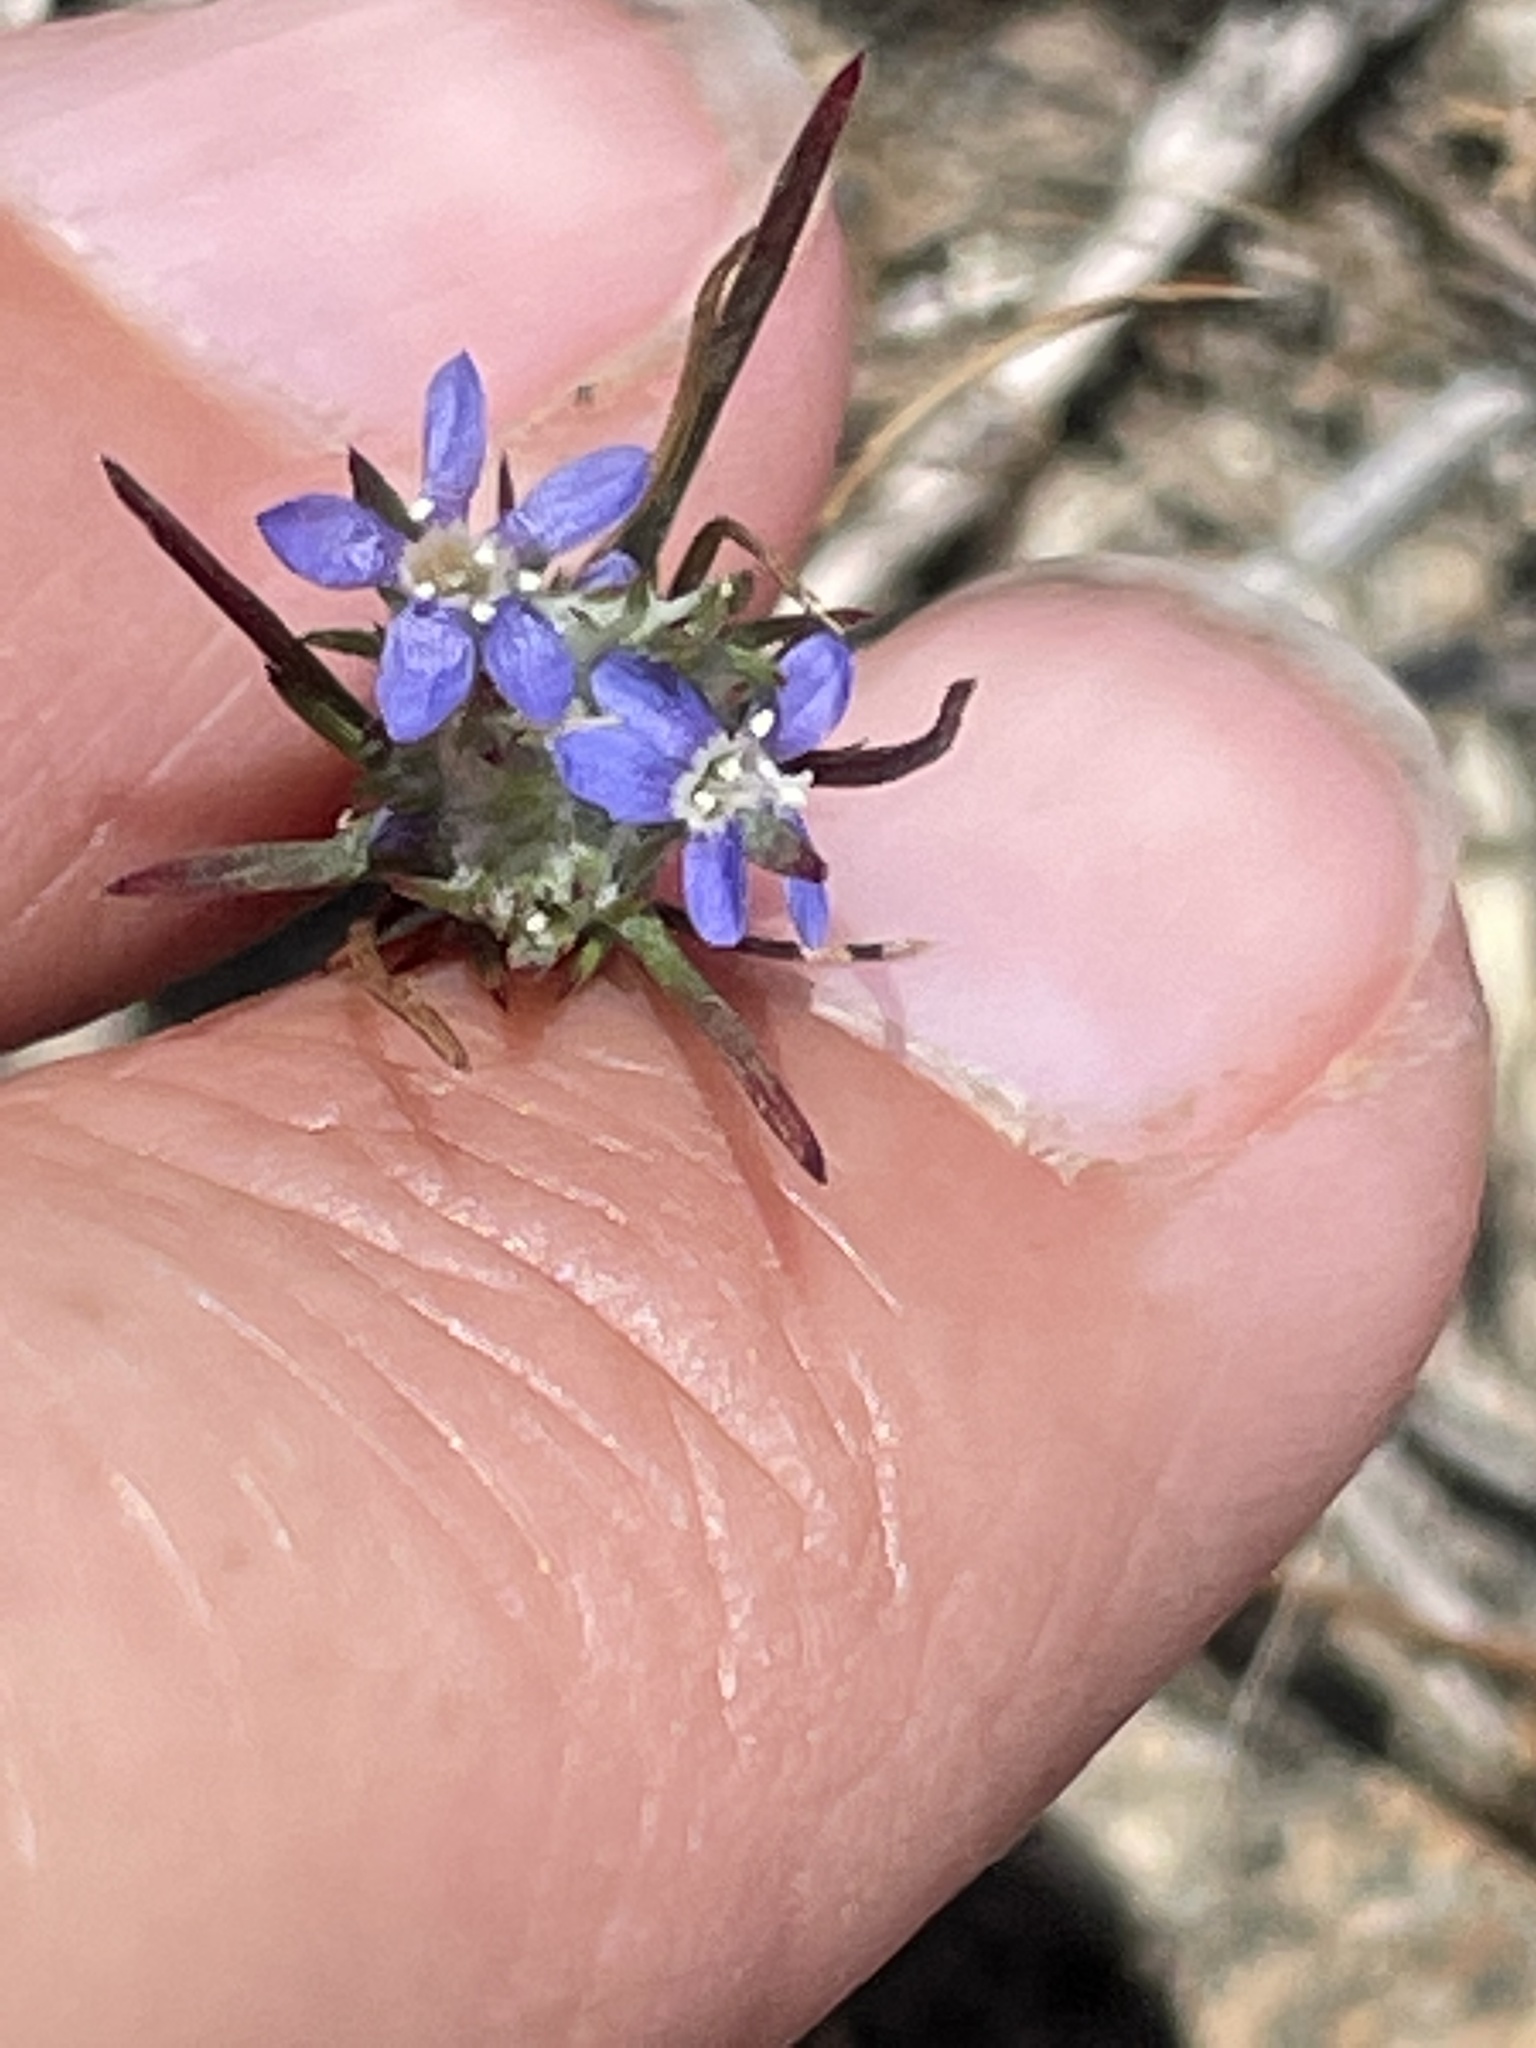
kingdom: Plantae
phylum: Tracheophyta
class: Magnoliopsida
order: Ericales
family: Polemoniaceae
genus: Eriastrum
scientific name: Eriastrum filifolium
